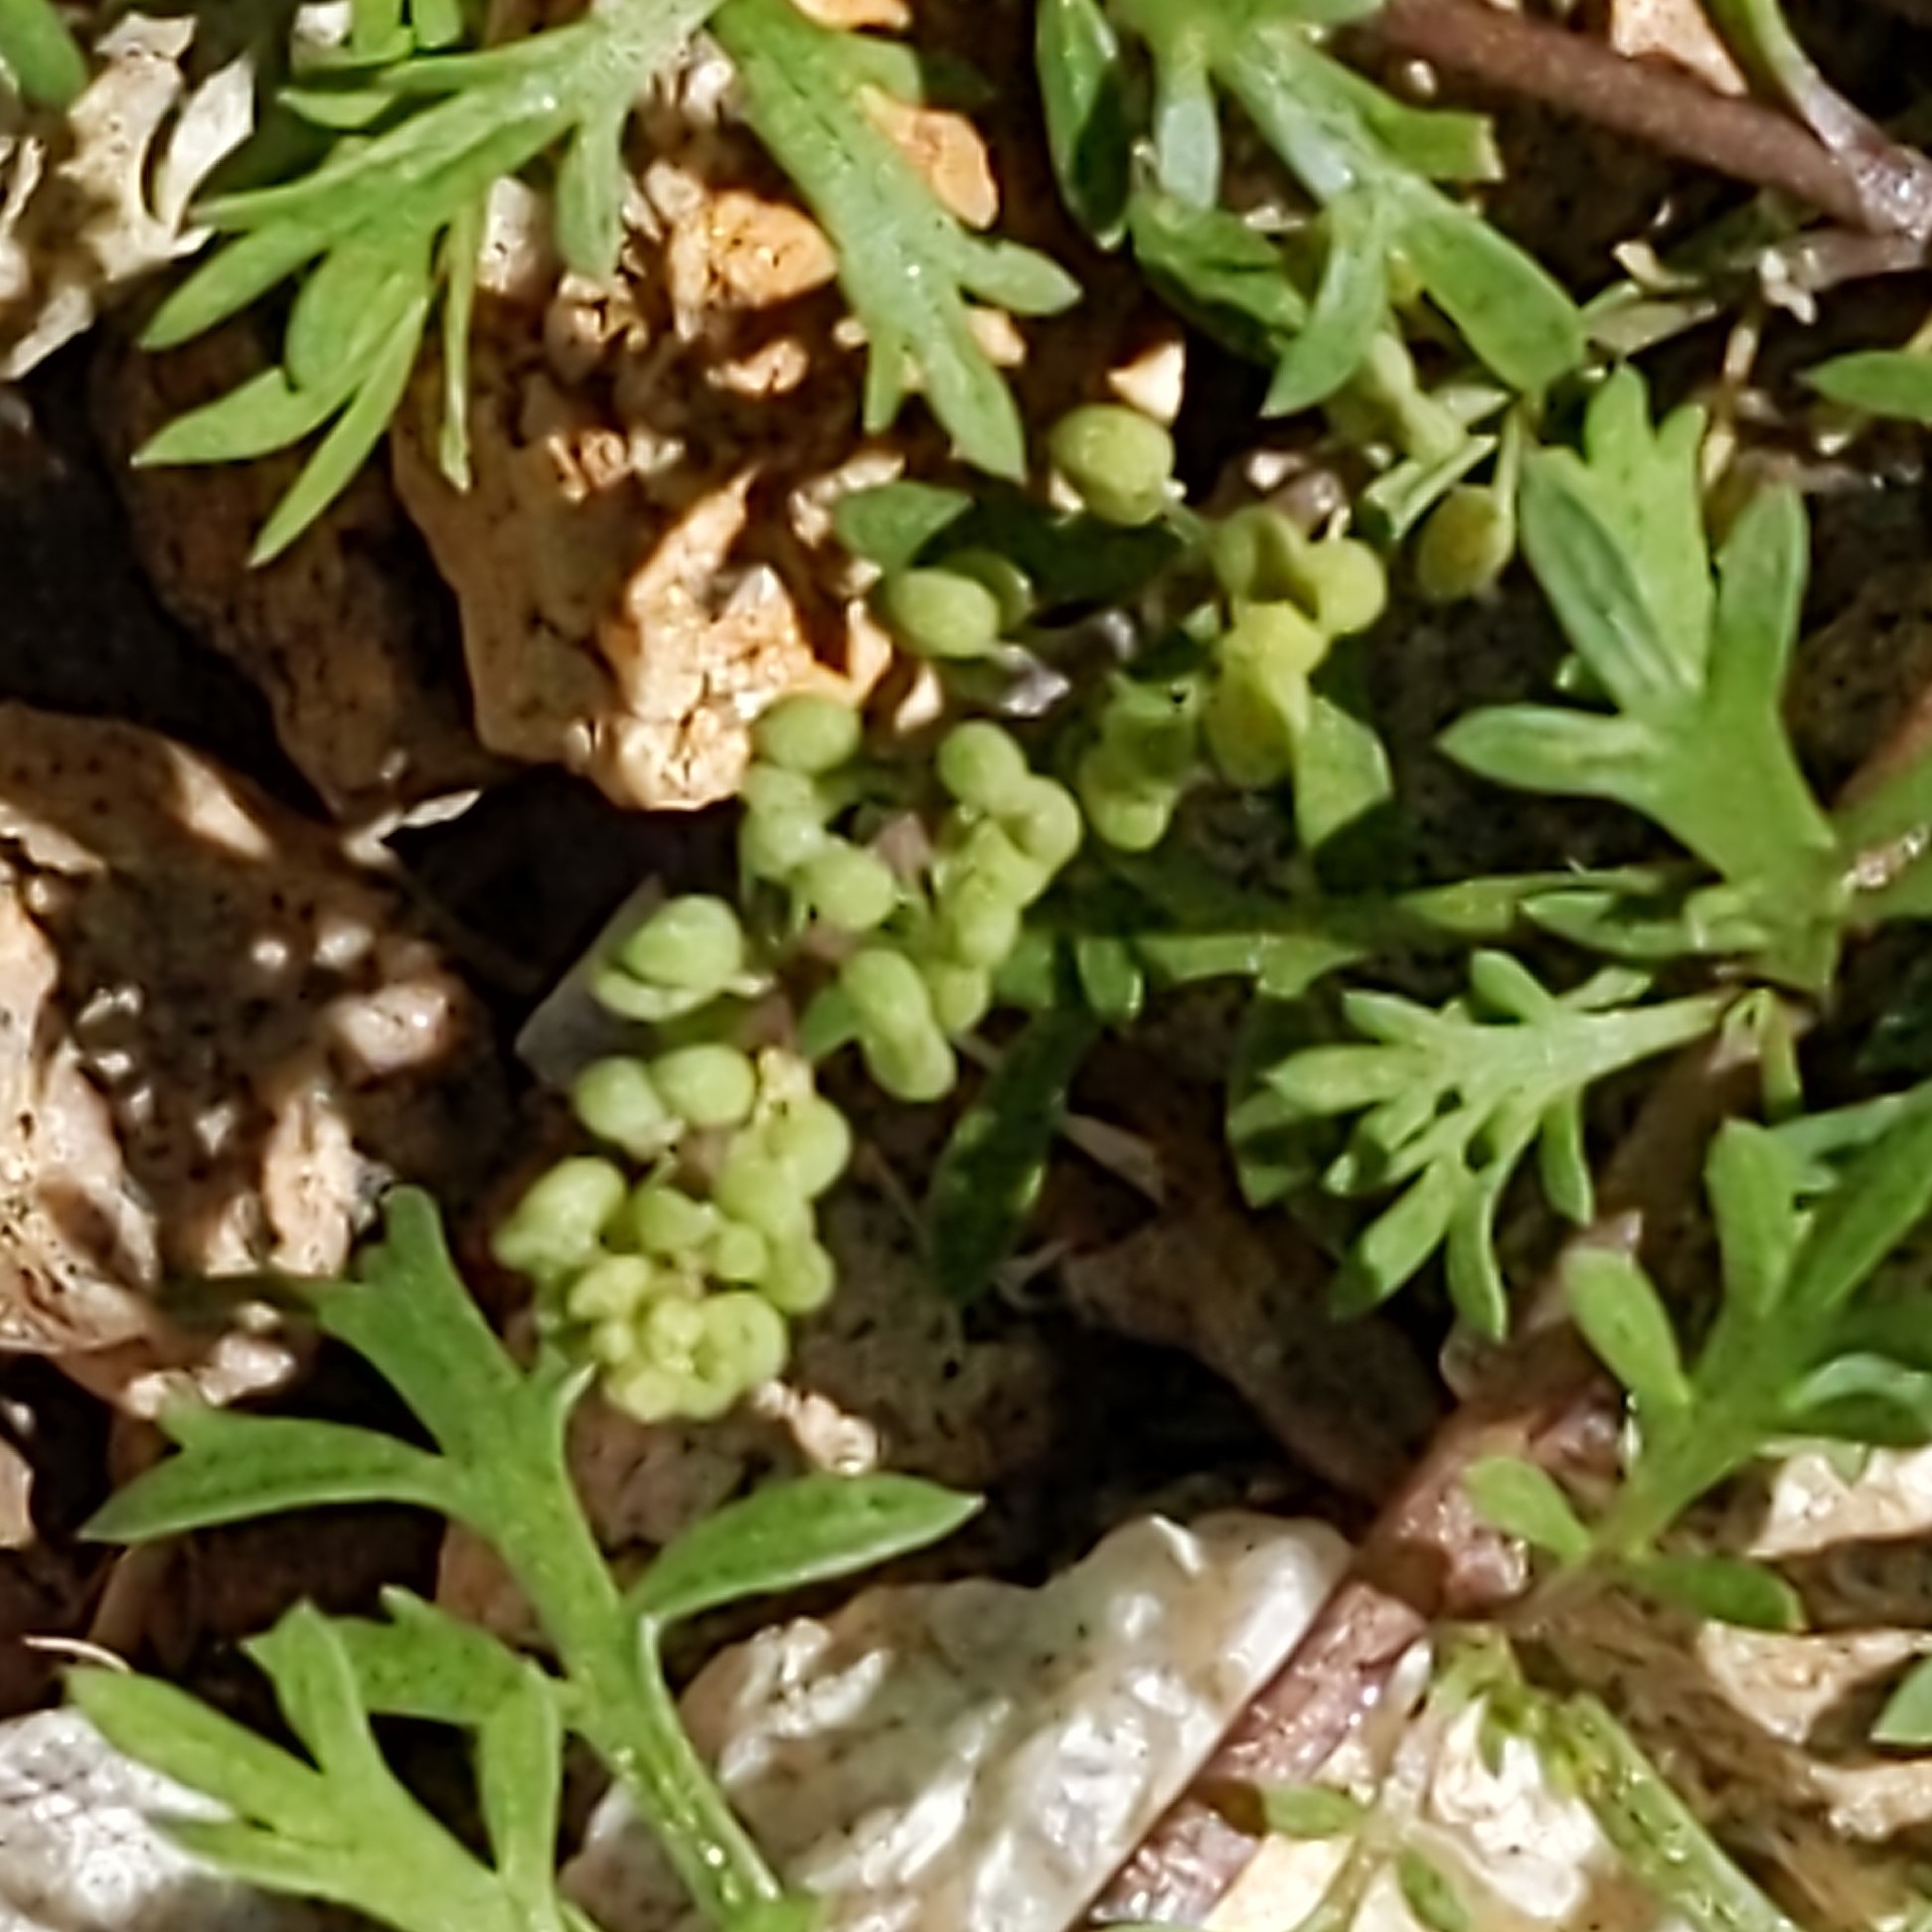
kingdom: Plantae
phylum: Tracheophyta
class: Magnoliopsida
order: Brassicales
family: Brassicaceae
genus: Lepidium
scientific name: Lepidium didymum
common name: Lesser swinecress
